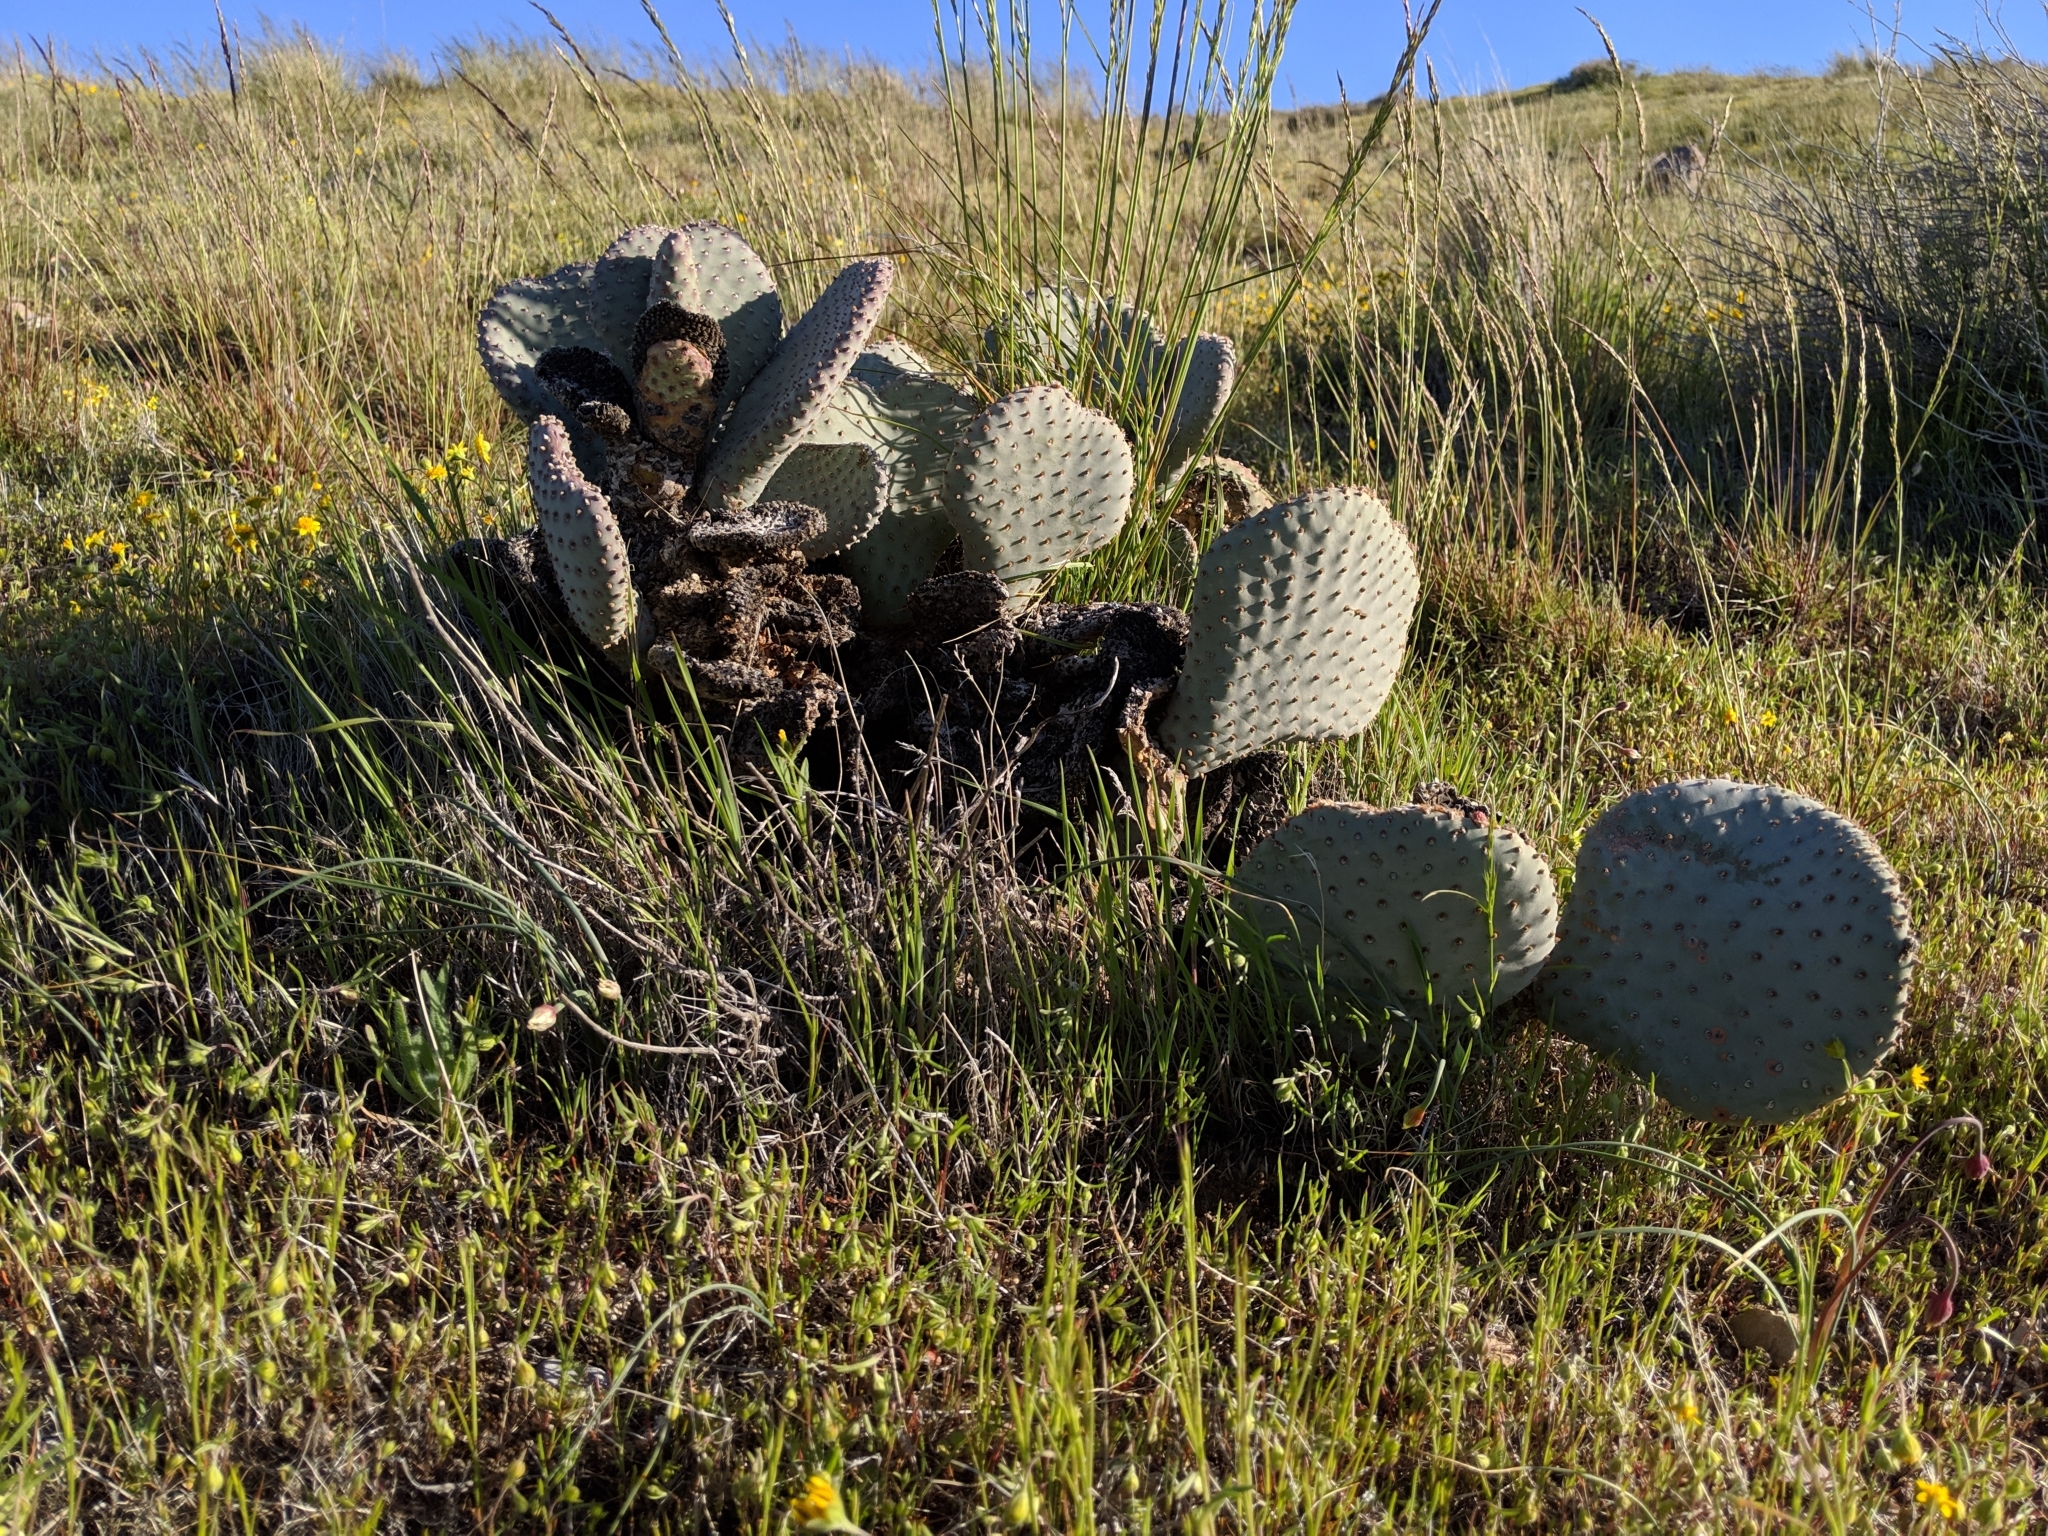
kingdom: Plantae
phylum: Tracheophyta
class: Magnoliopsida
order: Caryophyllales
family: Cactaceae
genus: Opuntia
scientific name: Opuntia basilaris
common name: Beavertail prickly-pear
